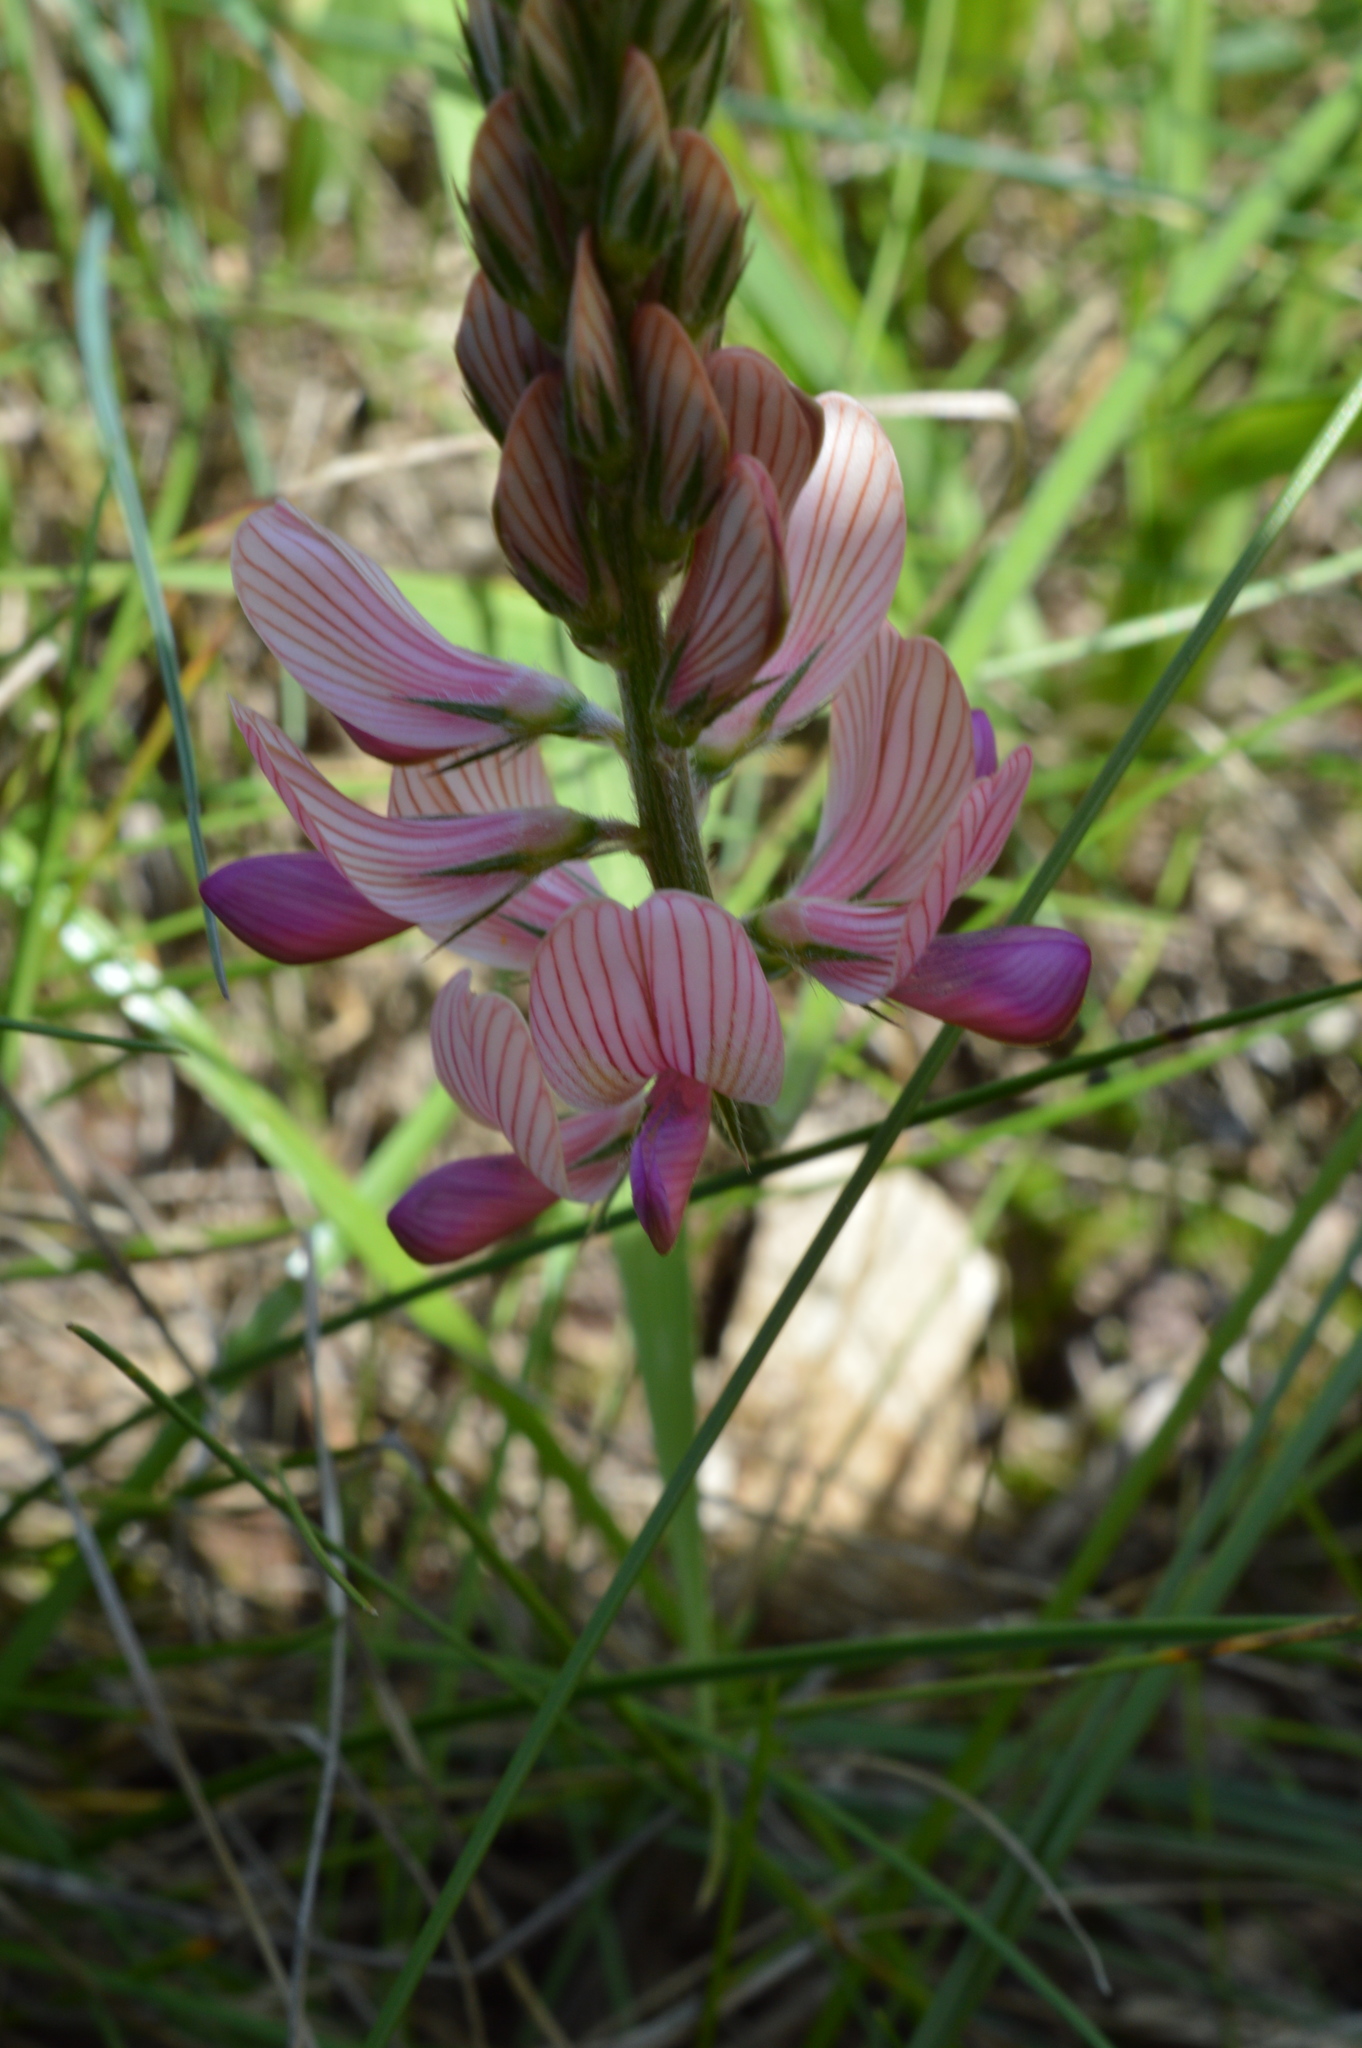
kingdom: Plantae
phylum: Tracheophyta
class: Magnoliopsida
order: Fabales
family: Fabaceae
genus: Onobrychis
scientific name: Onobrychis viciifolia
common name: Sainfoin
